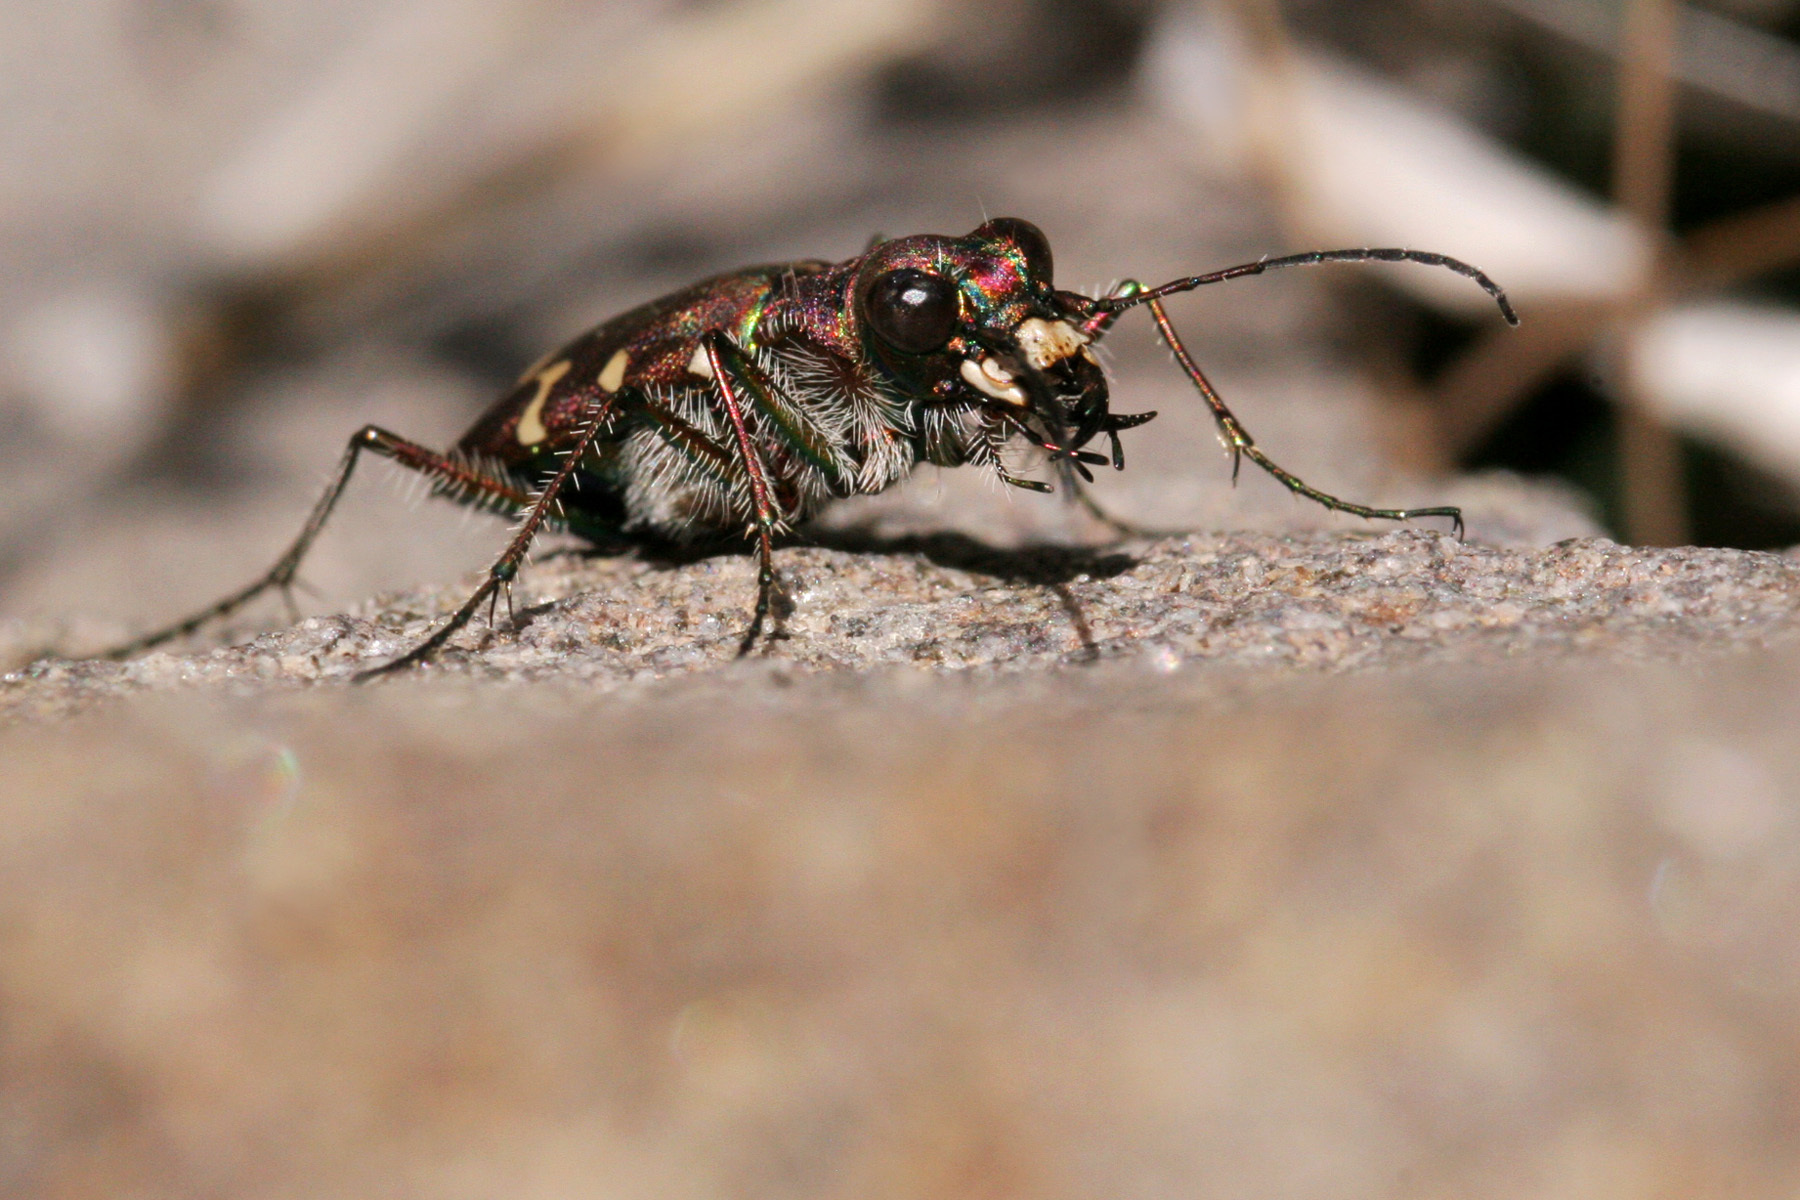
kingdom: Animalia
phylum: Arthropoda
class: Insecta
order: Coleoptera
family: Carabidae
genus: Cicindela
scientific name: Cicindela oregona
